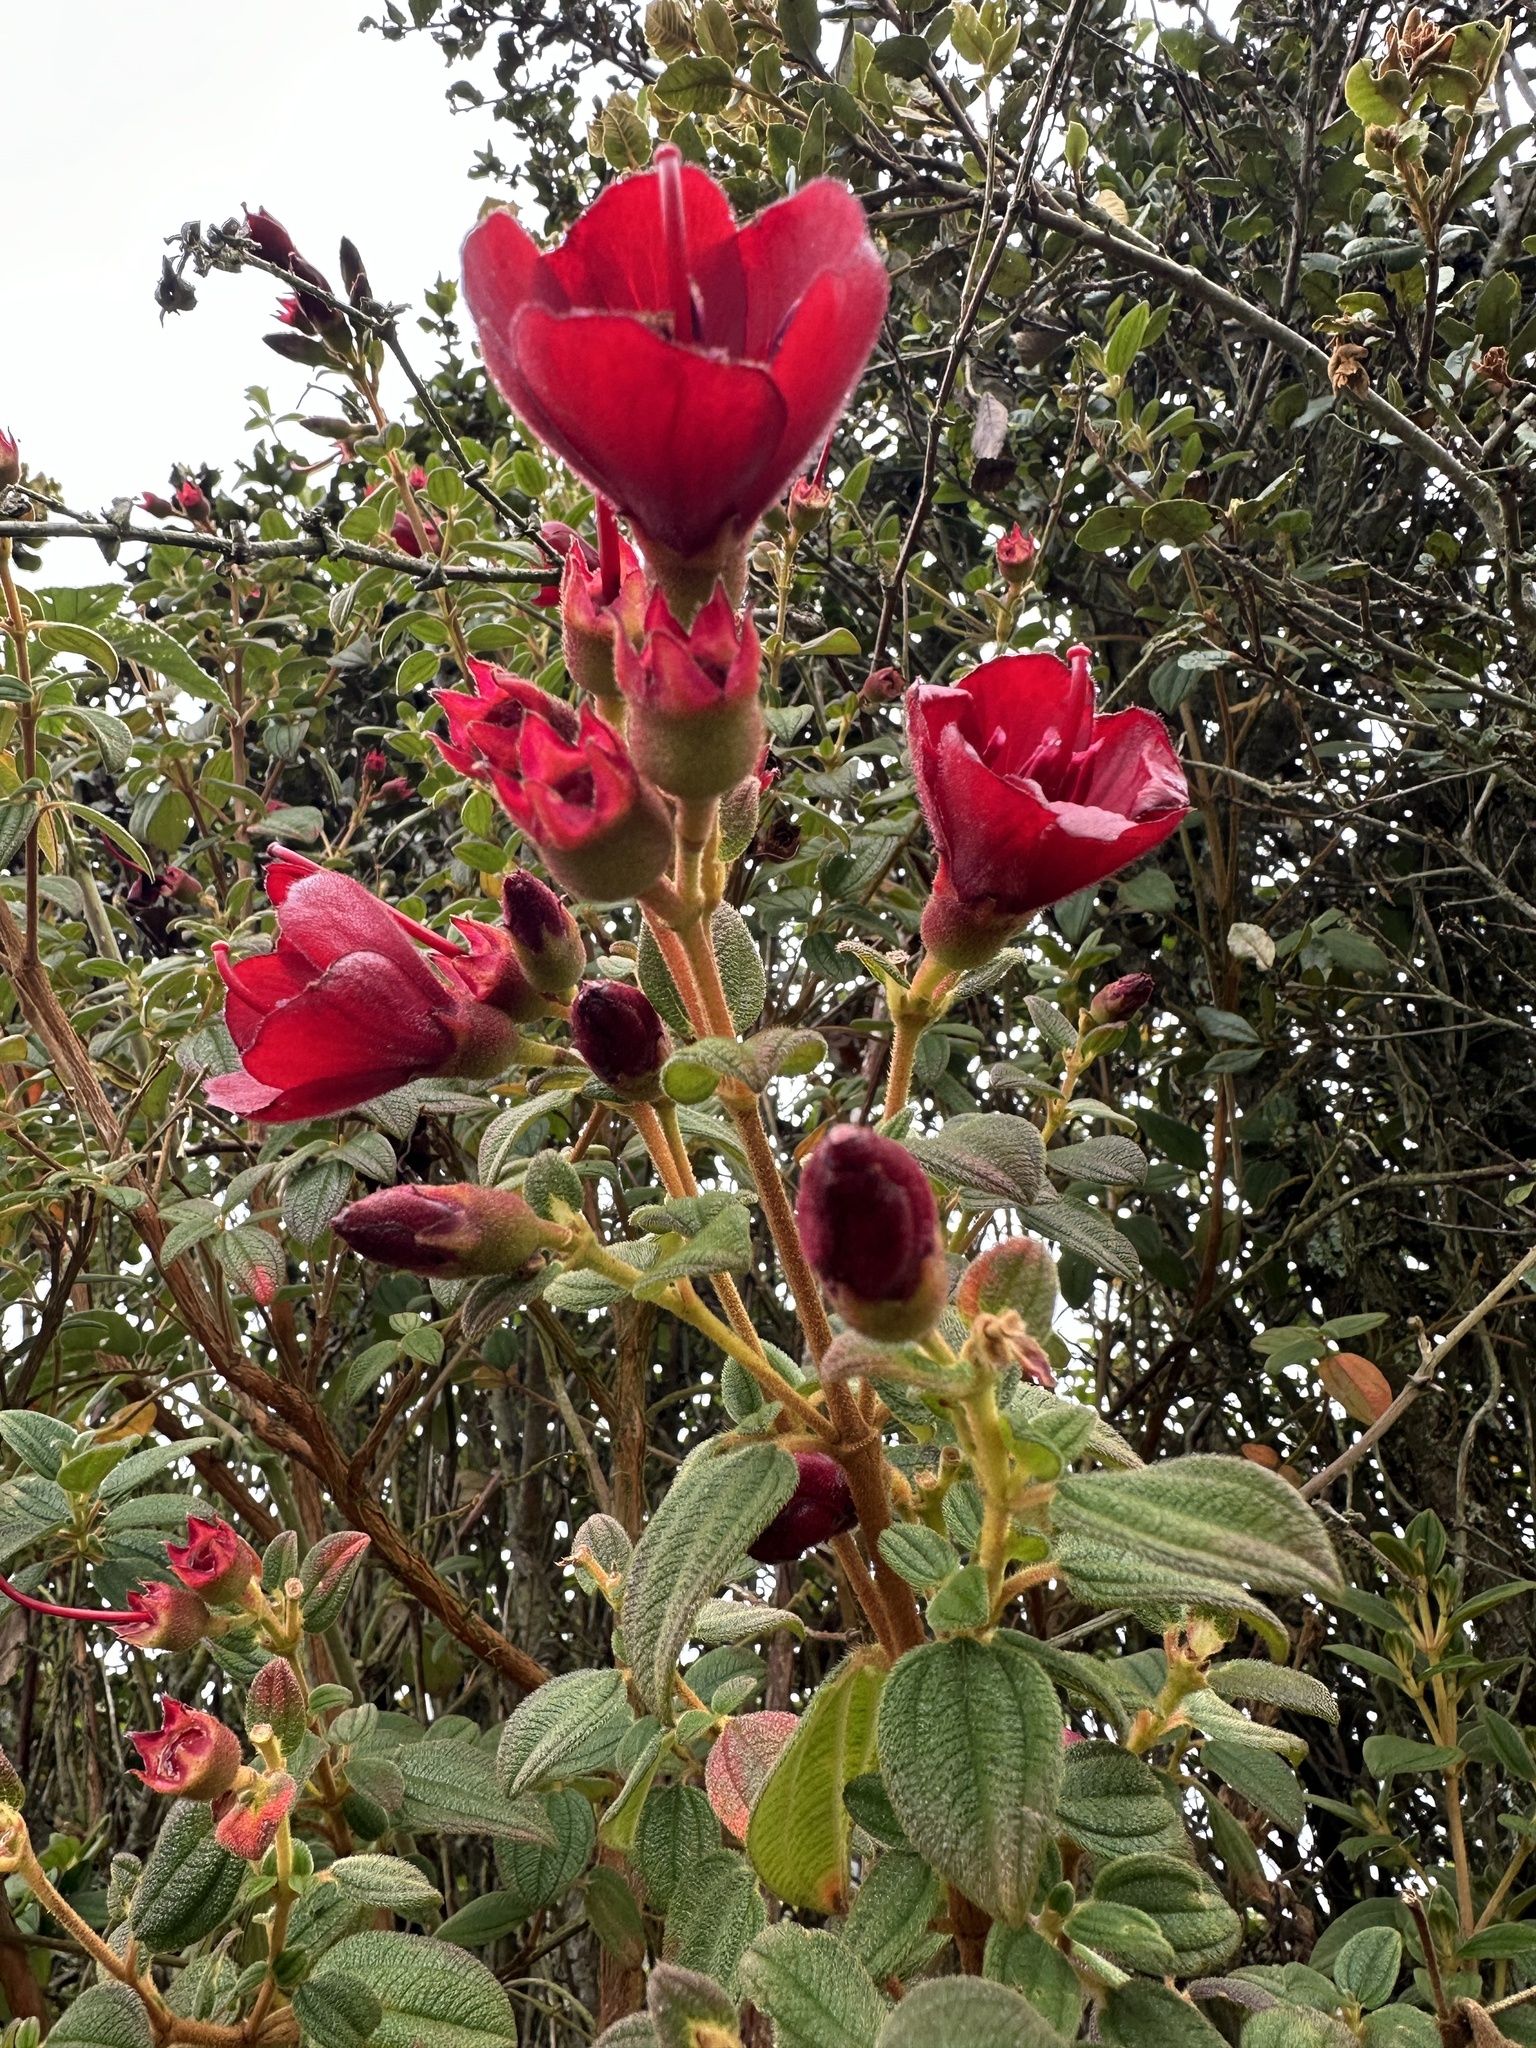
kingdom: Plantae
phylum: Tracheophyta
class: Magnoliopsida
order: Myrtales
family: Melastomataceae
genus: Chaetogastra
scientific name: Chaetogastra grossa
